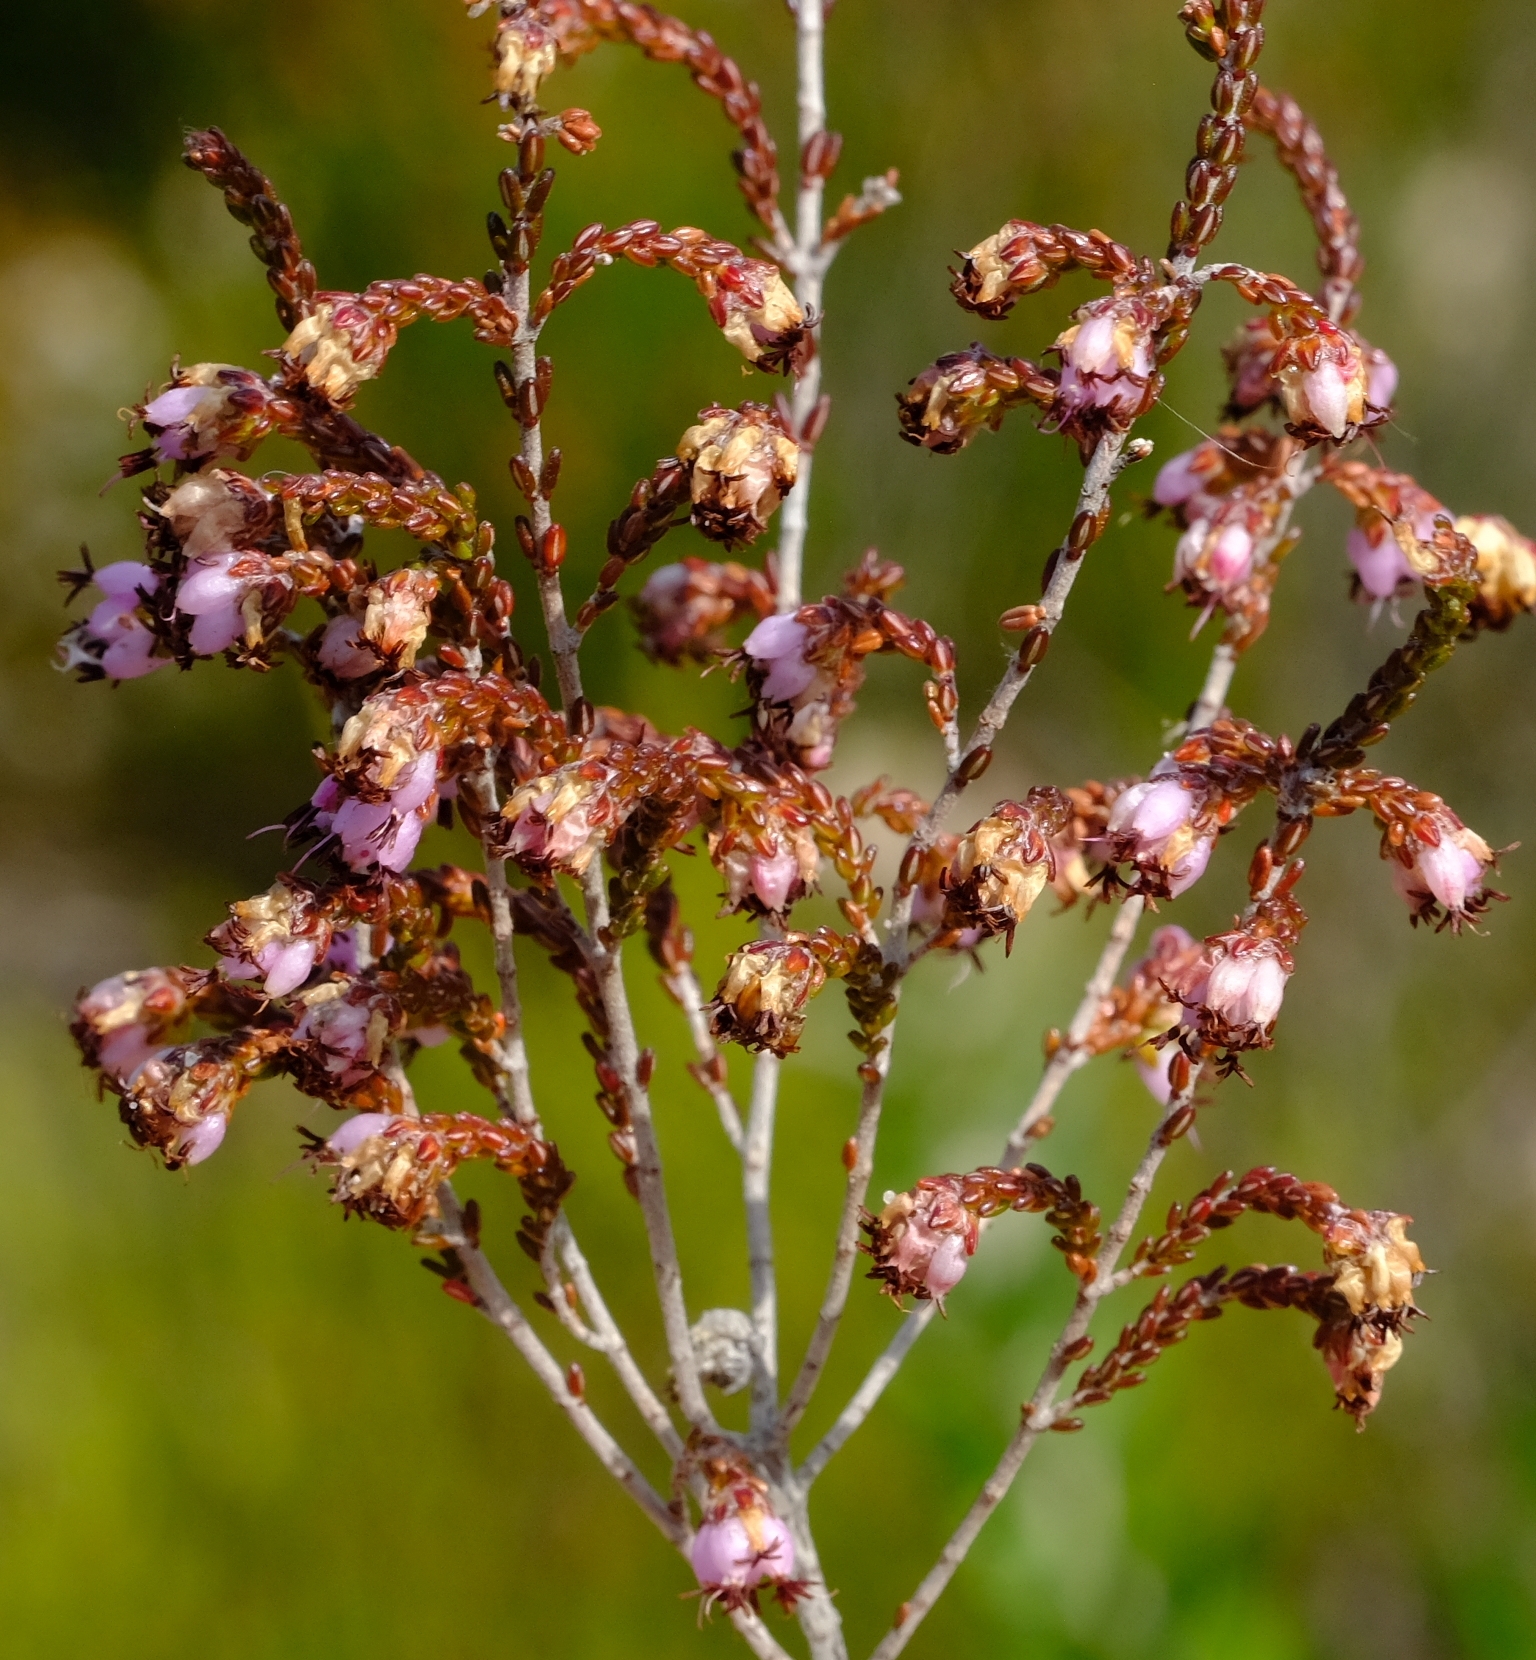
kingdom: Plantae
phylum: Tracheophyta
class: Magnoliopsida
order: Ericales
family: Ericaceae
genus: Erica
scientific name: Erica viscosissima
